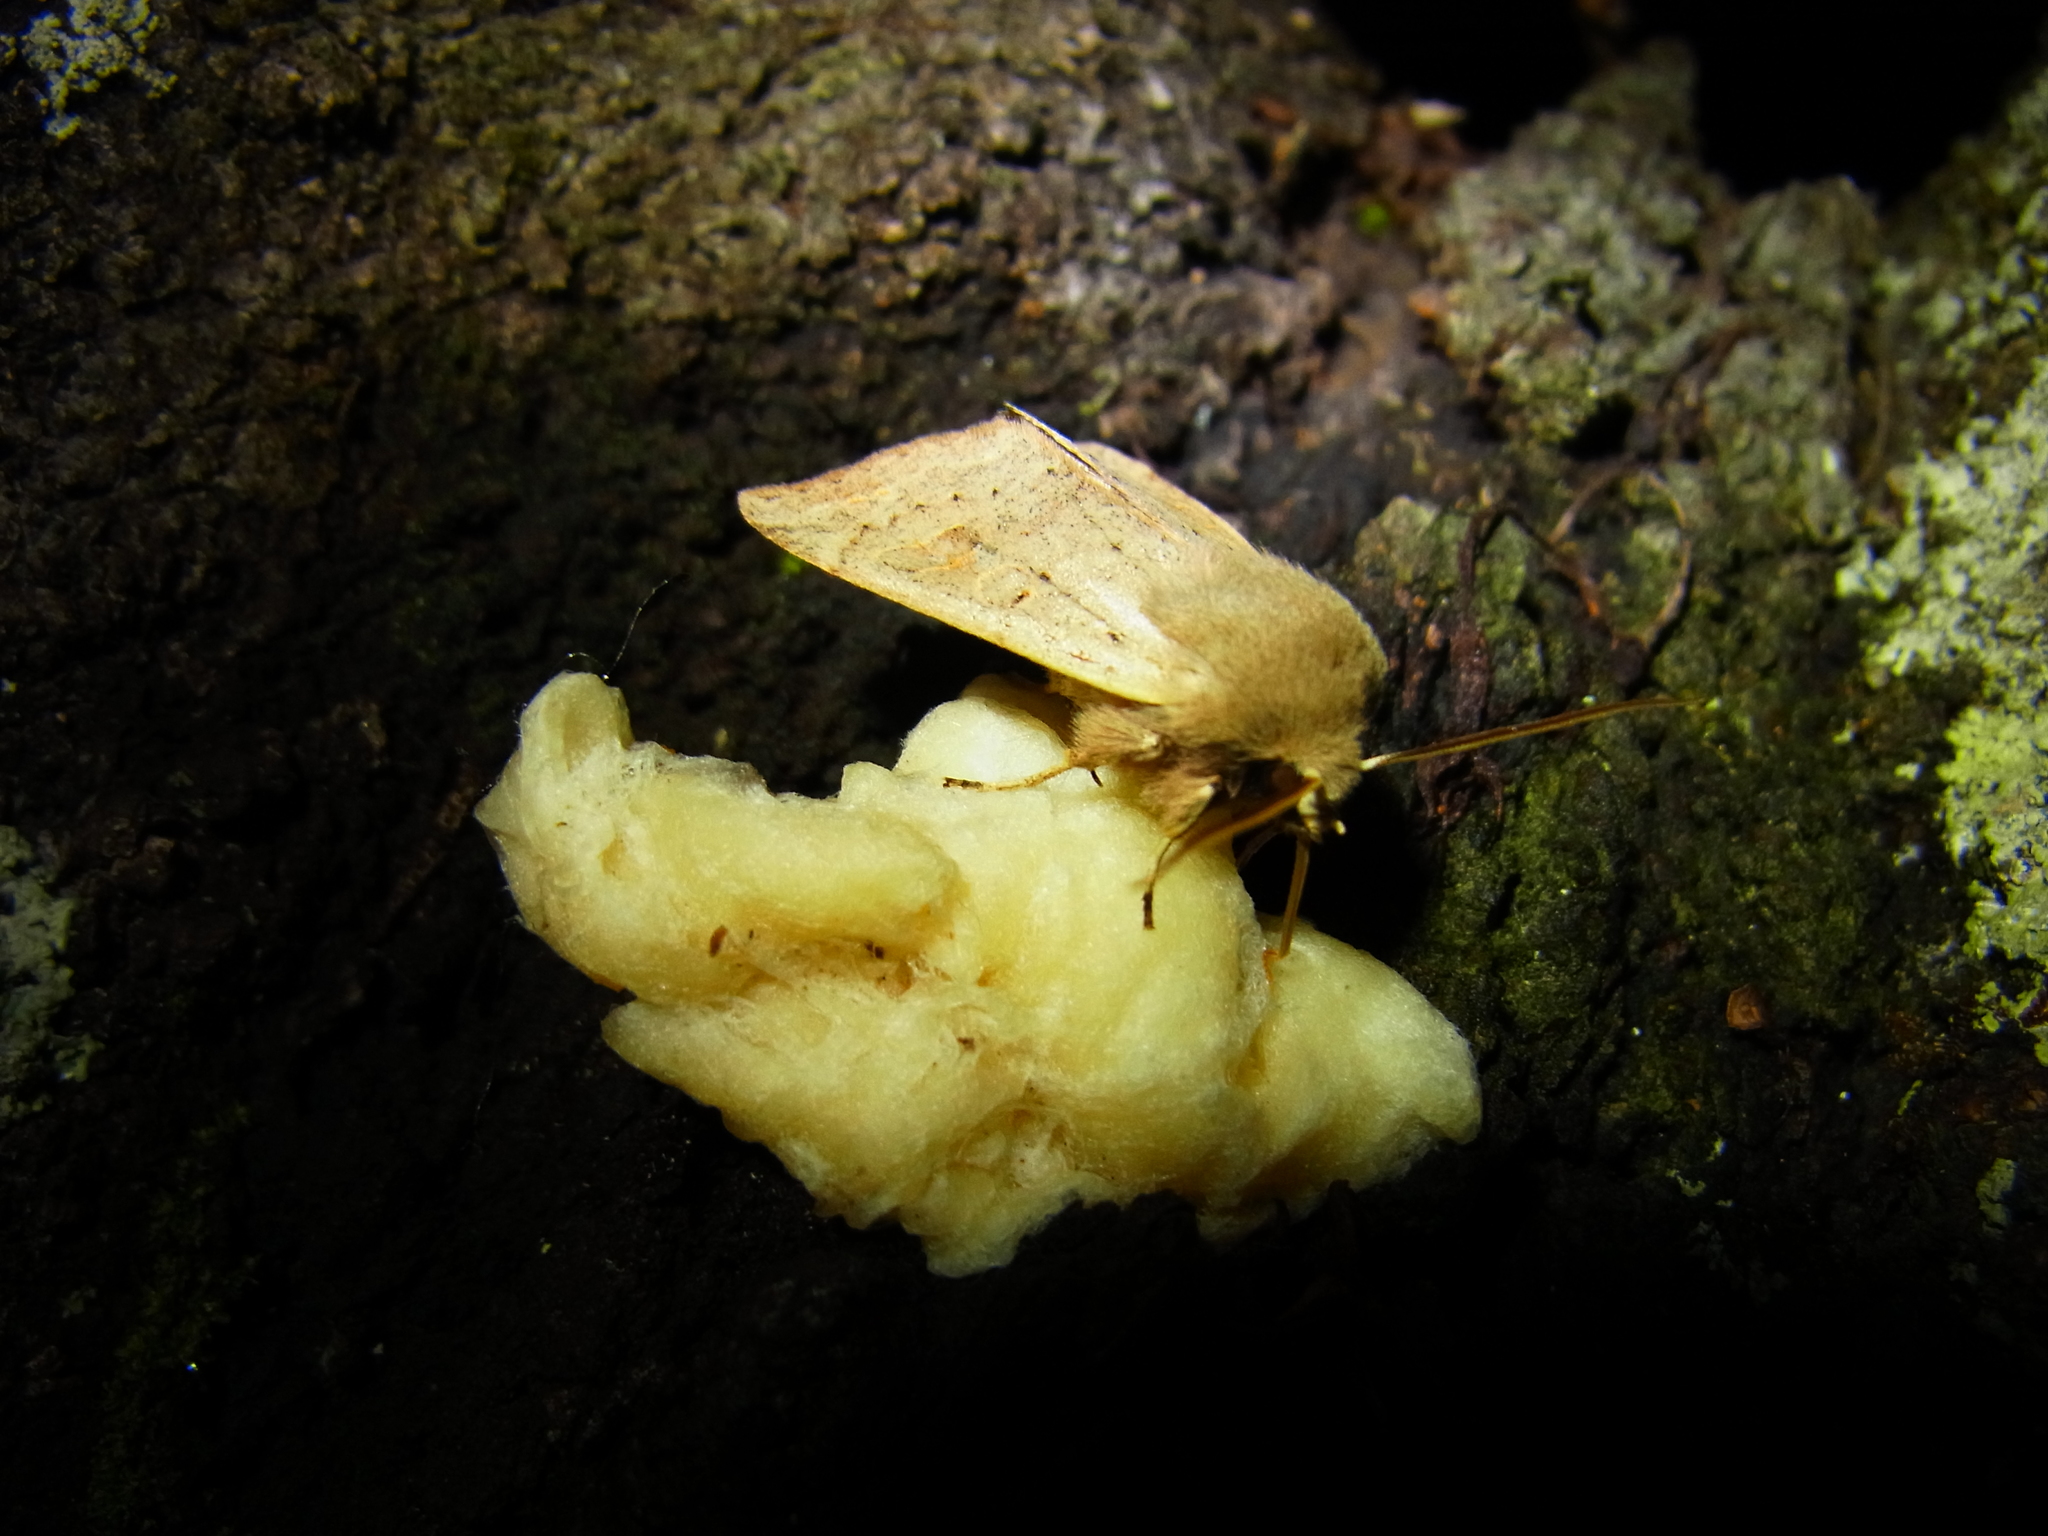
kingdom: Animalia
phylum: Arthropoda
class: Insecta
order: Lepidoptera
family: Noctuidae
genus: Anorthoa
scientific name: Anorthoa munda
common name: Twin-spotted quaker
